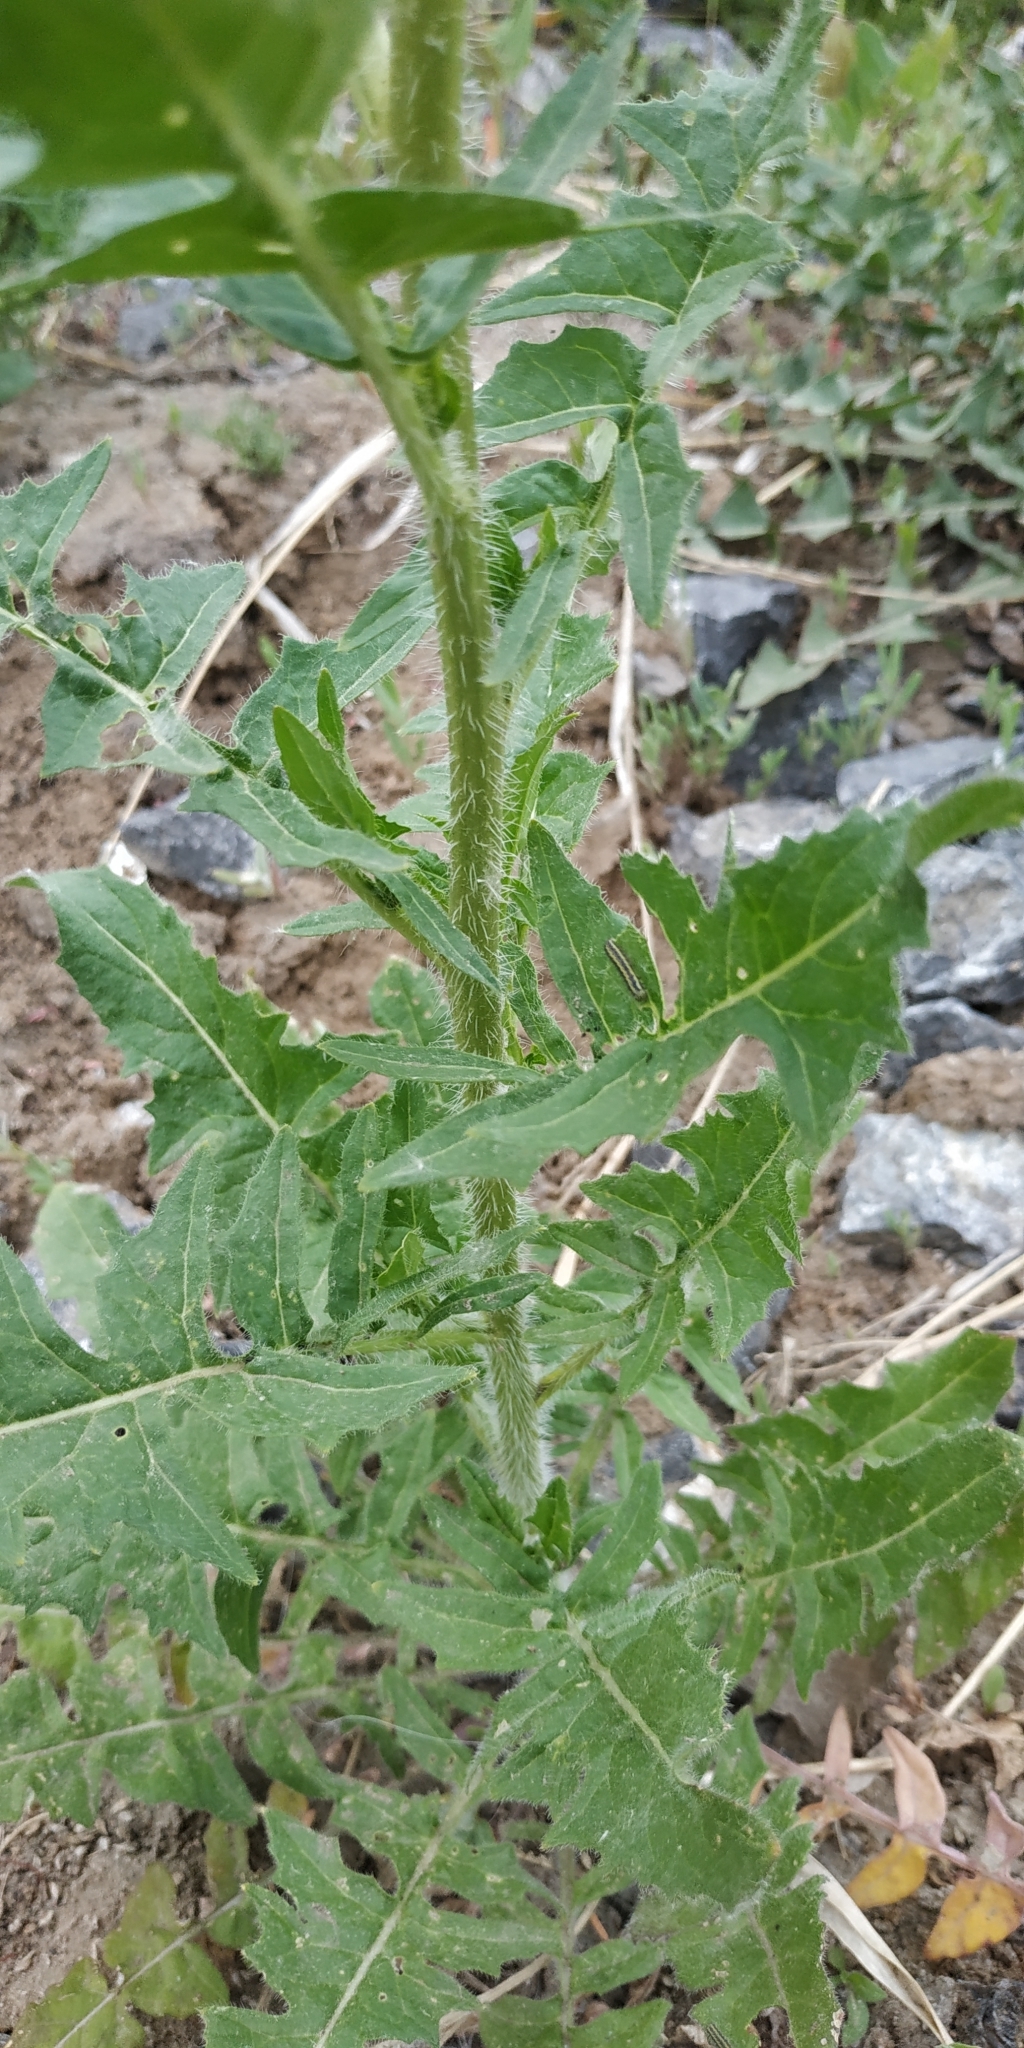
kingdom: Plantae
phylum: Tracheophyta
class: Magnoliopsida
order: Brassicales
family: Brassicaceae
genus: Sisymbrium
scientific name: Sisymbrium loeselii
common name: False london-rocket
